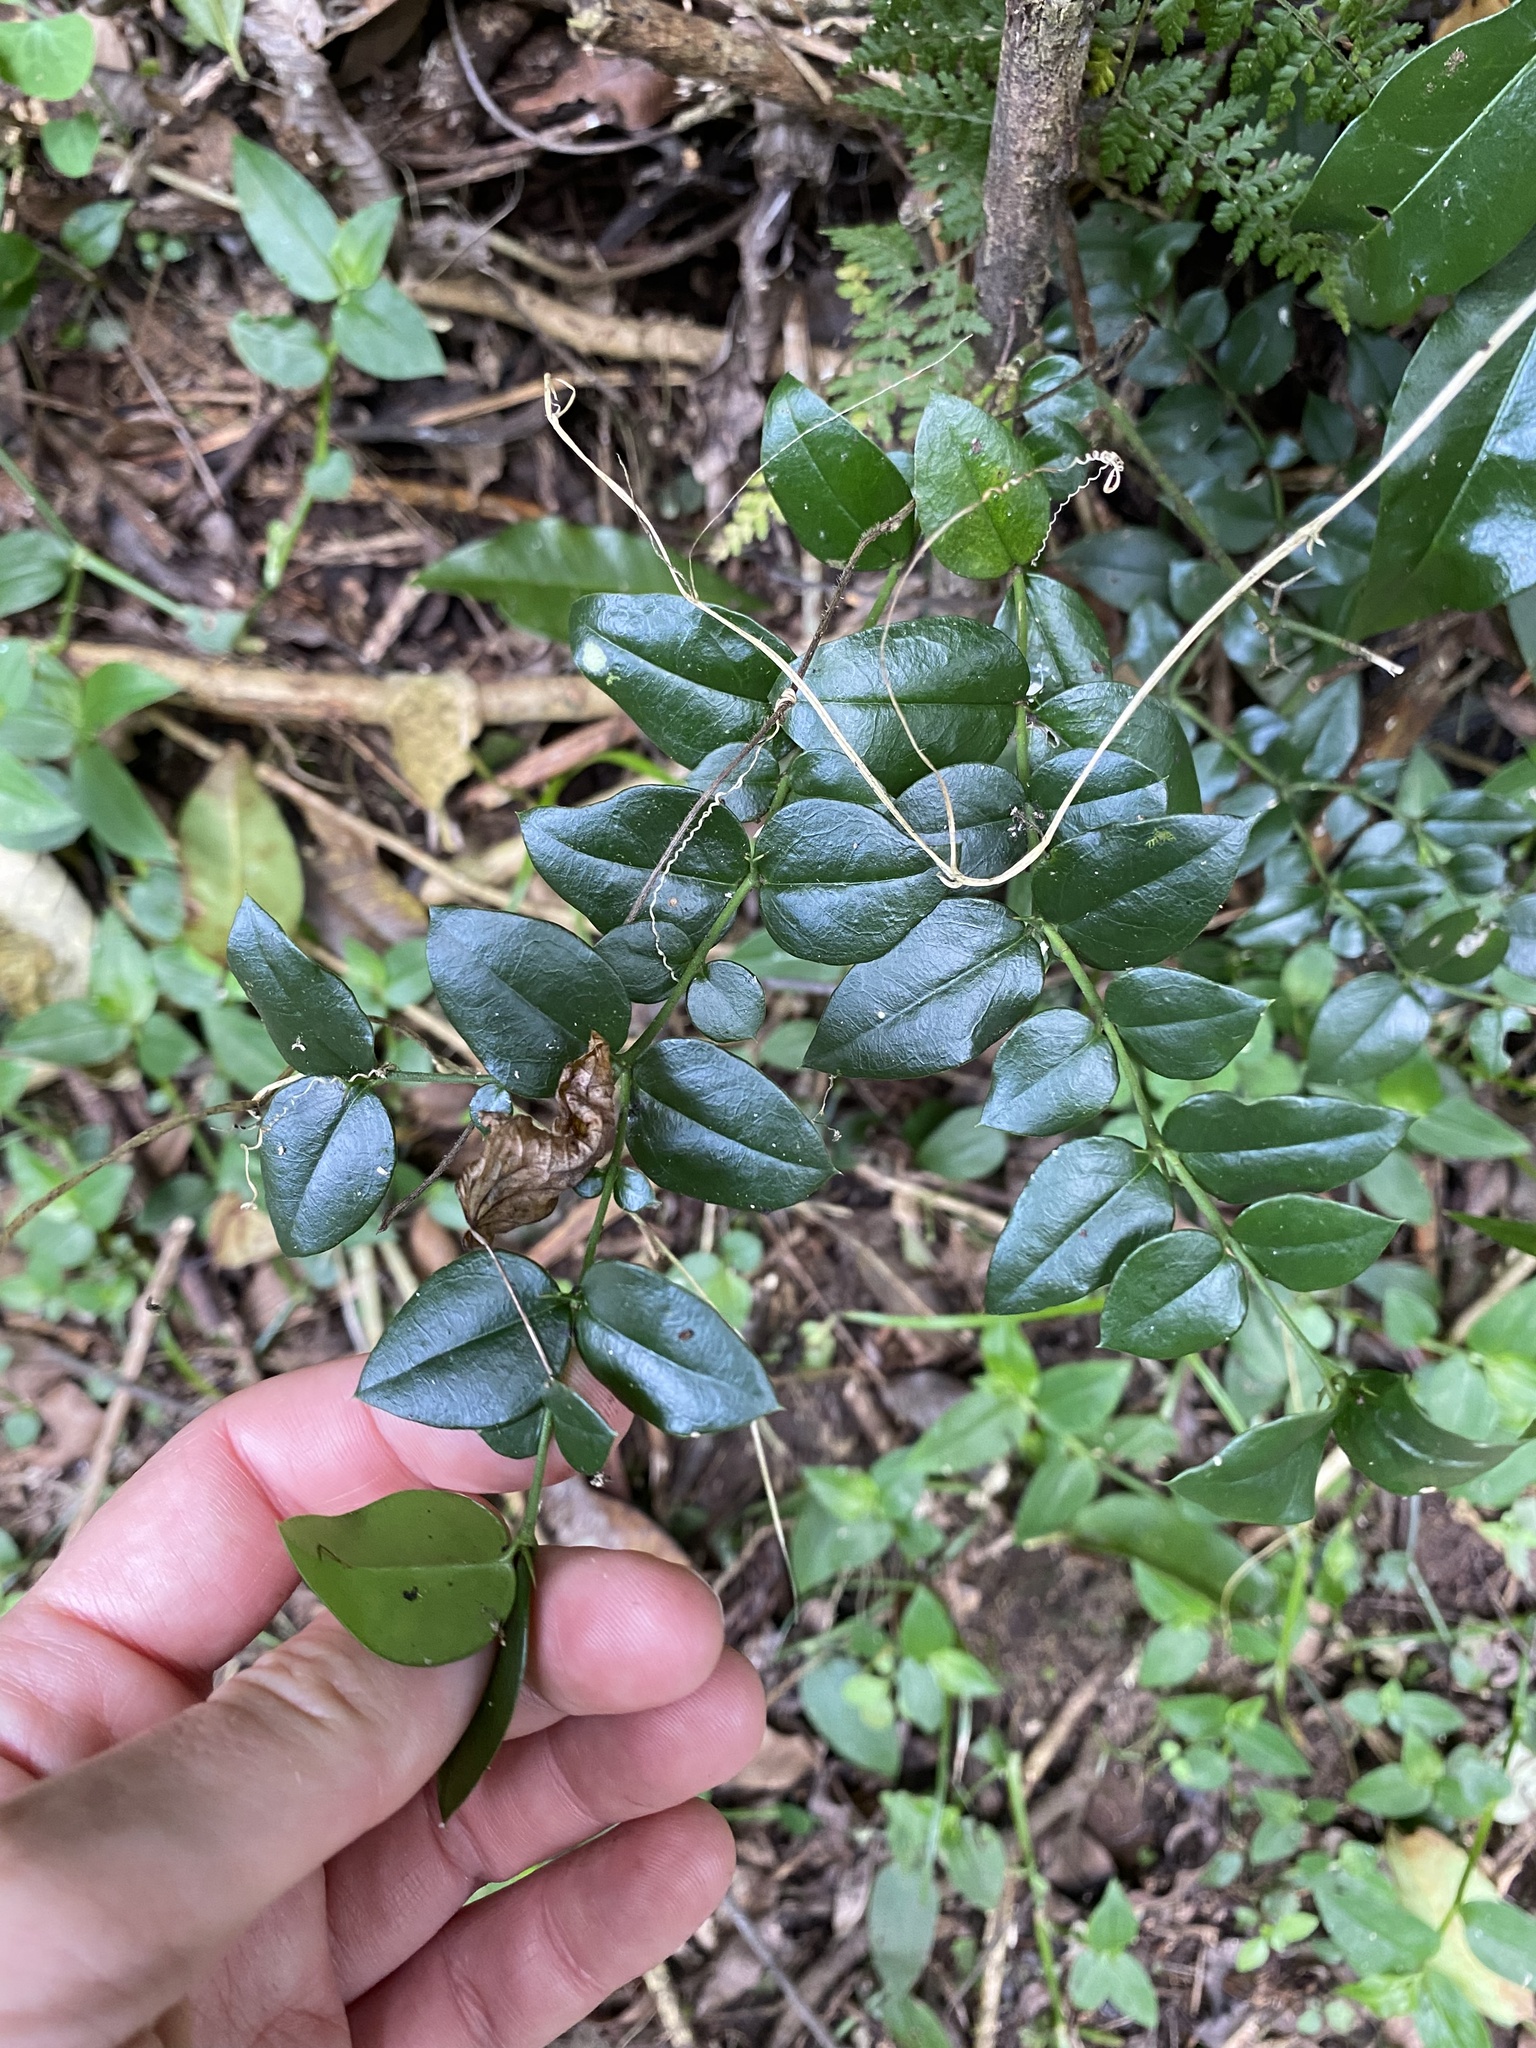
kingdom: Plantae
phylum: Tracheophyta
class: Magnoliopsida
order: Gentianales
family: Apocynaceae
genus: Carissa
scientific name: Carissa bispinosa
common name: Forest num-num
